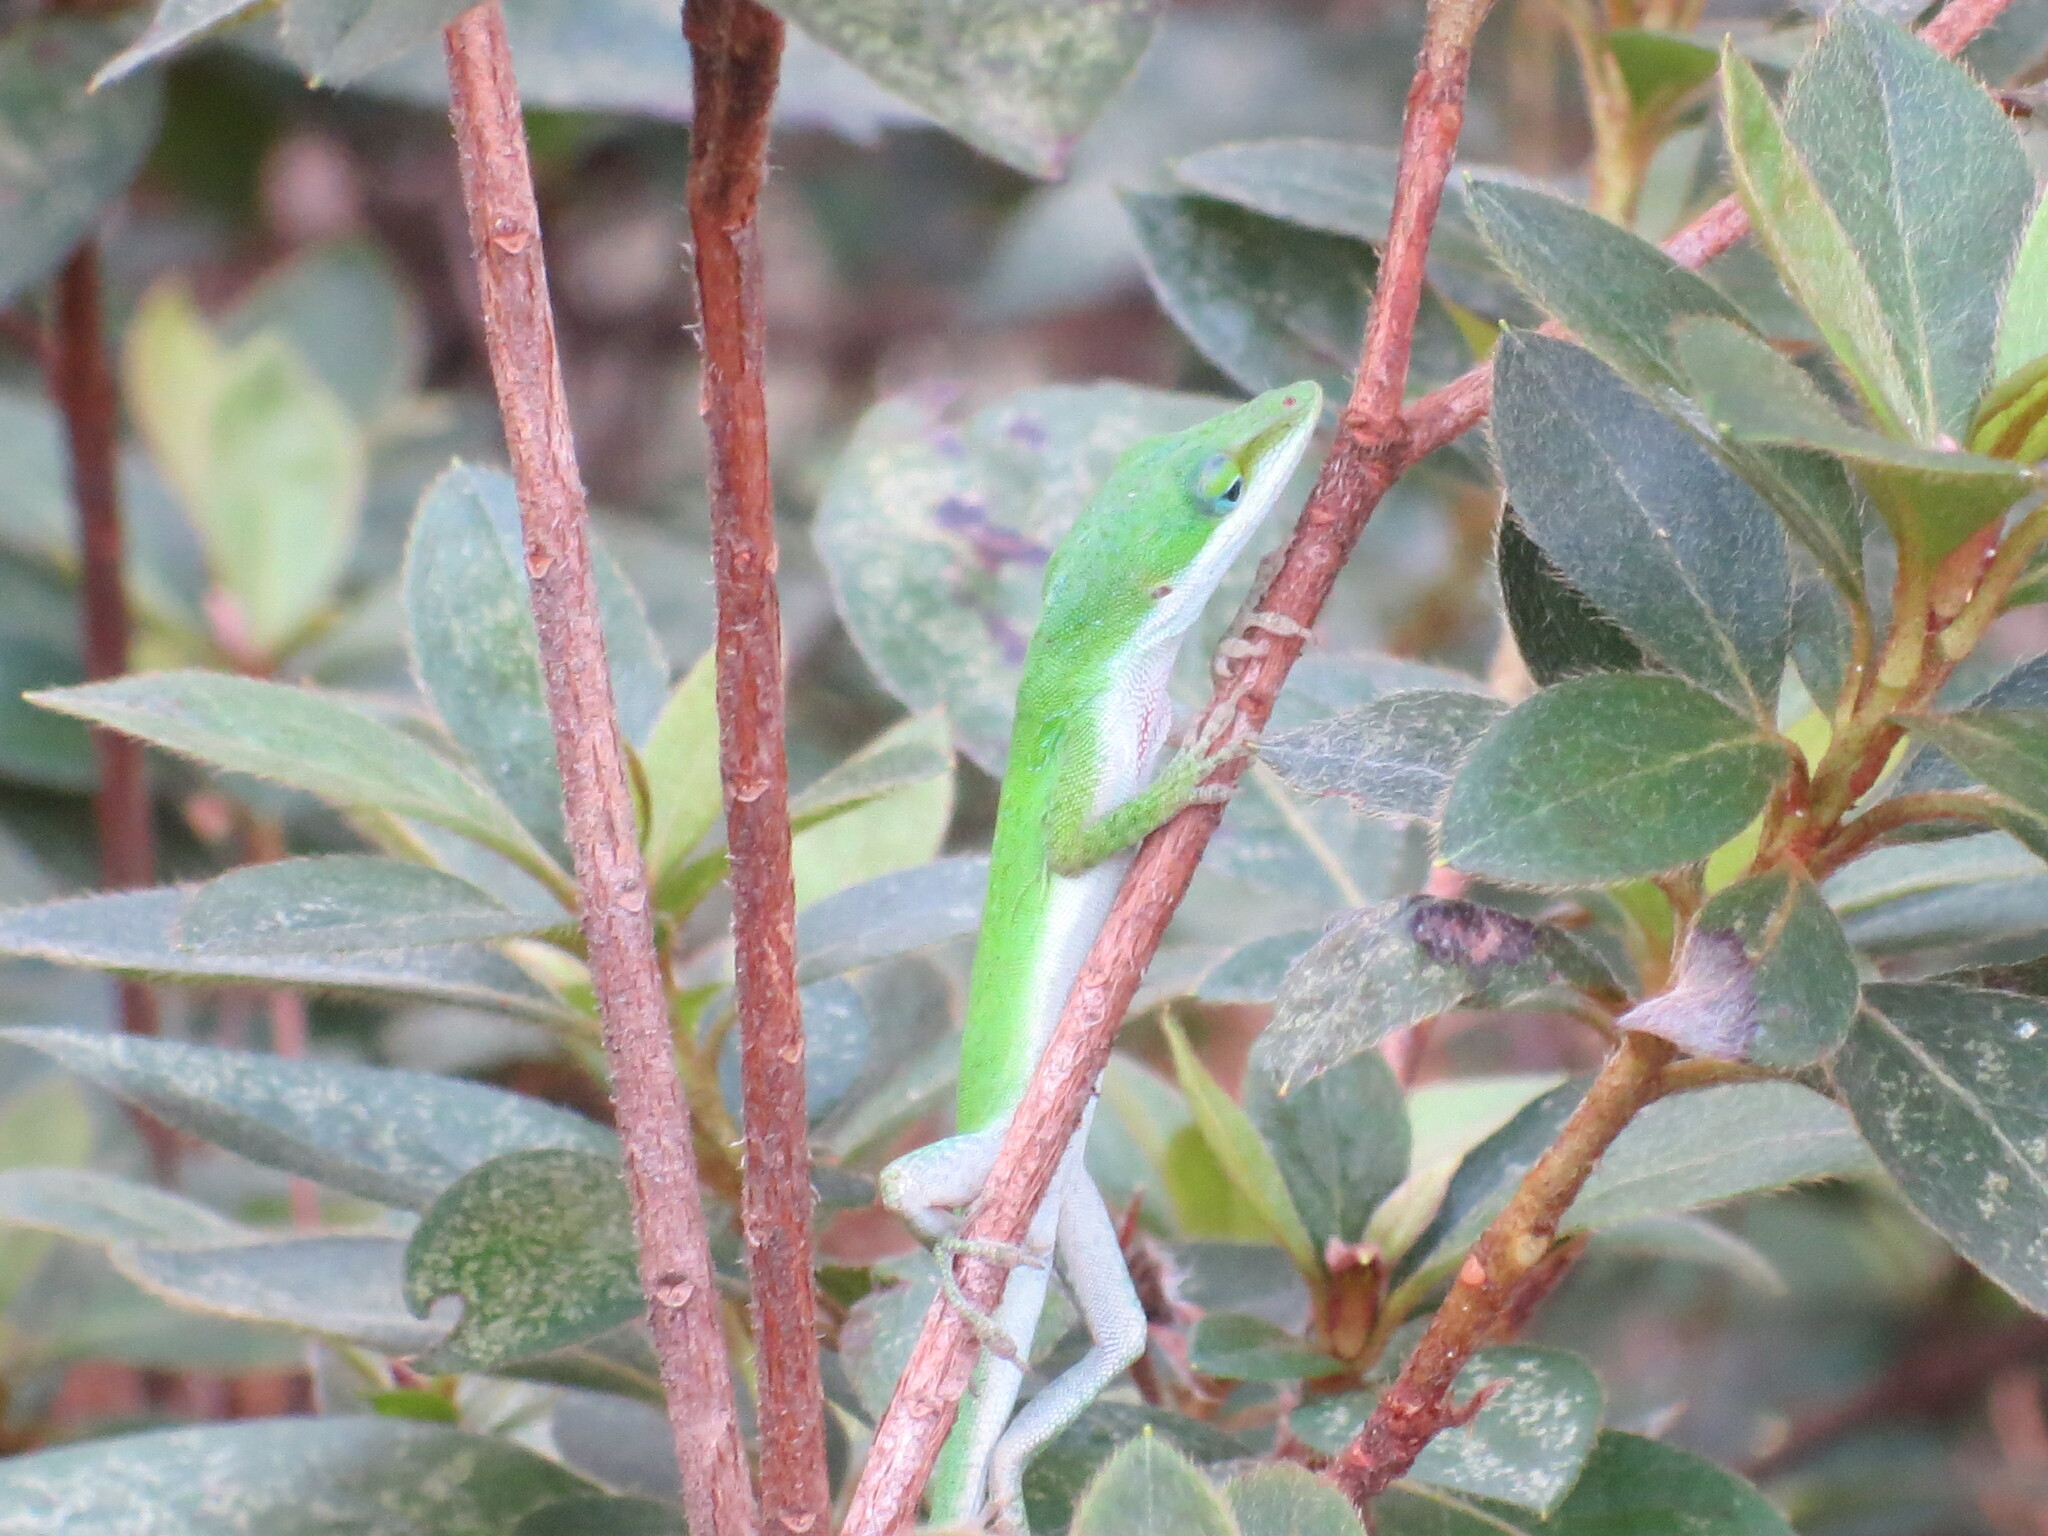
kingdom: Animalia
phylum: Chordata
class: Squamata
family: Dactyloidae
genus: Anolis
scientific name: Anolis carolinensis
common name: Green anole
